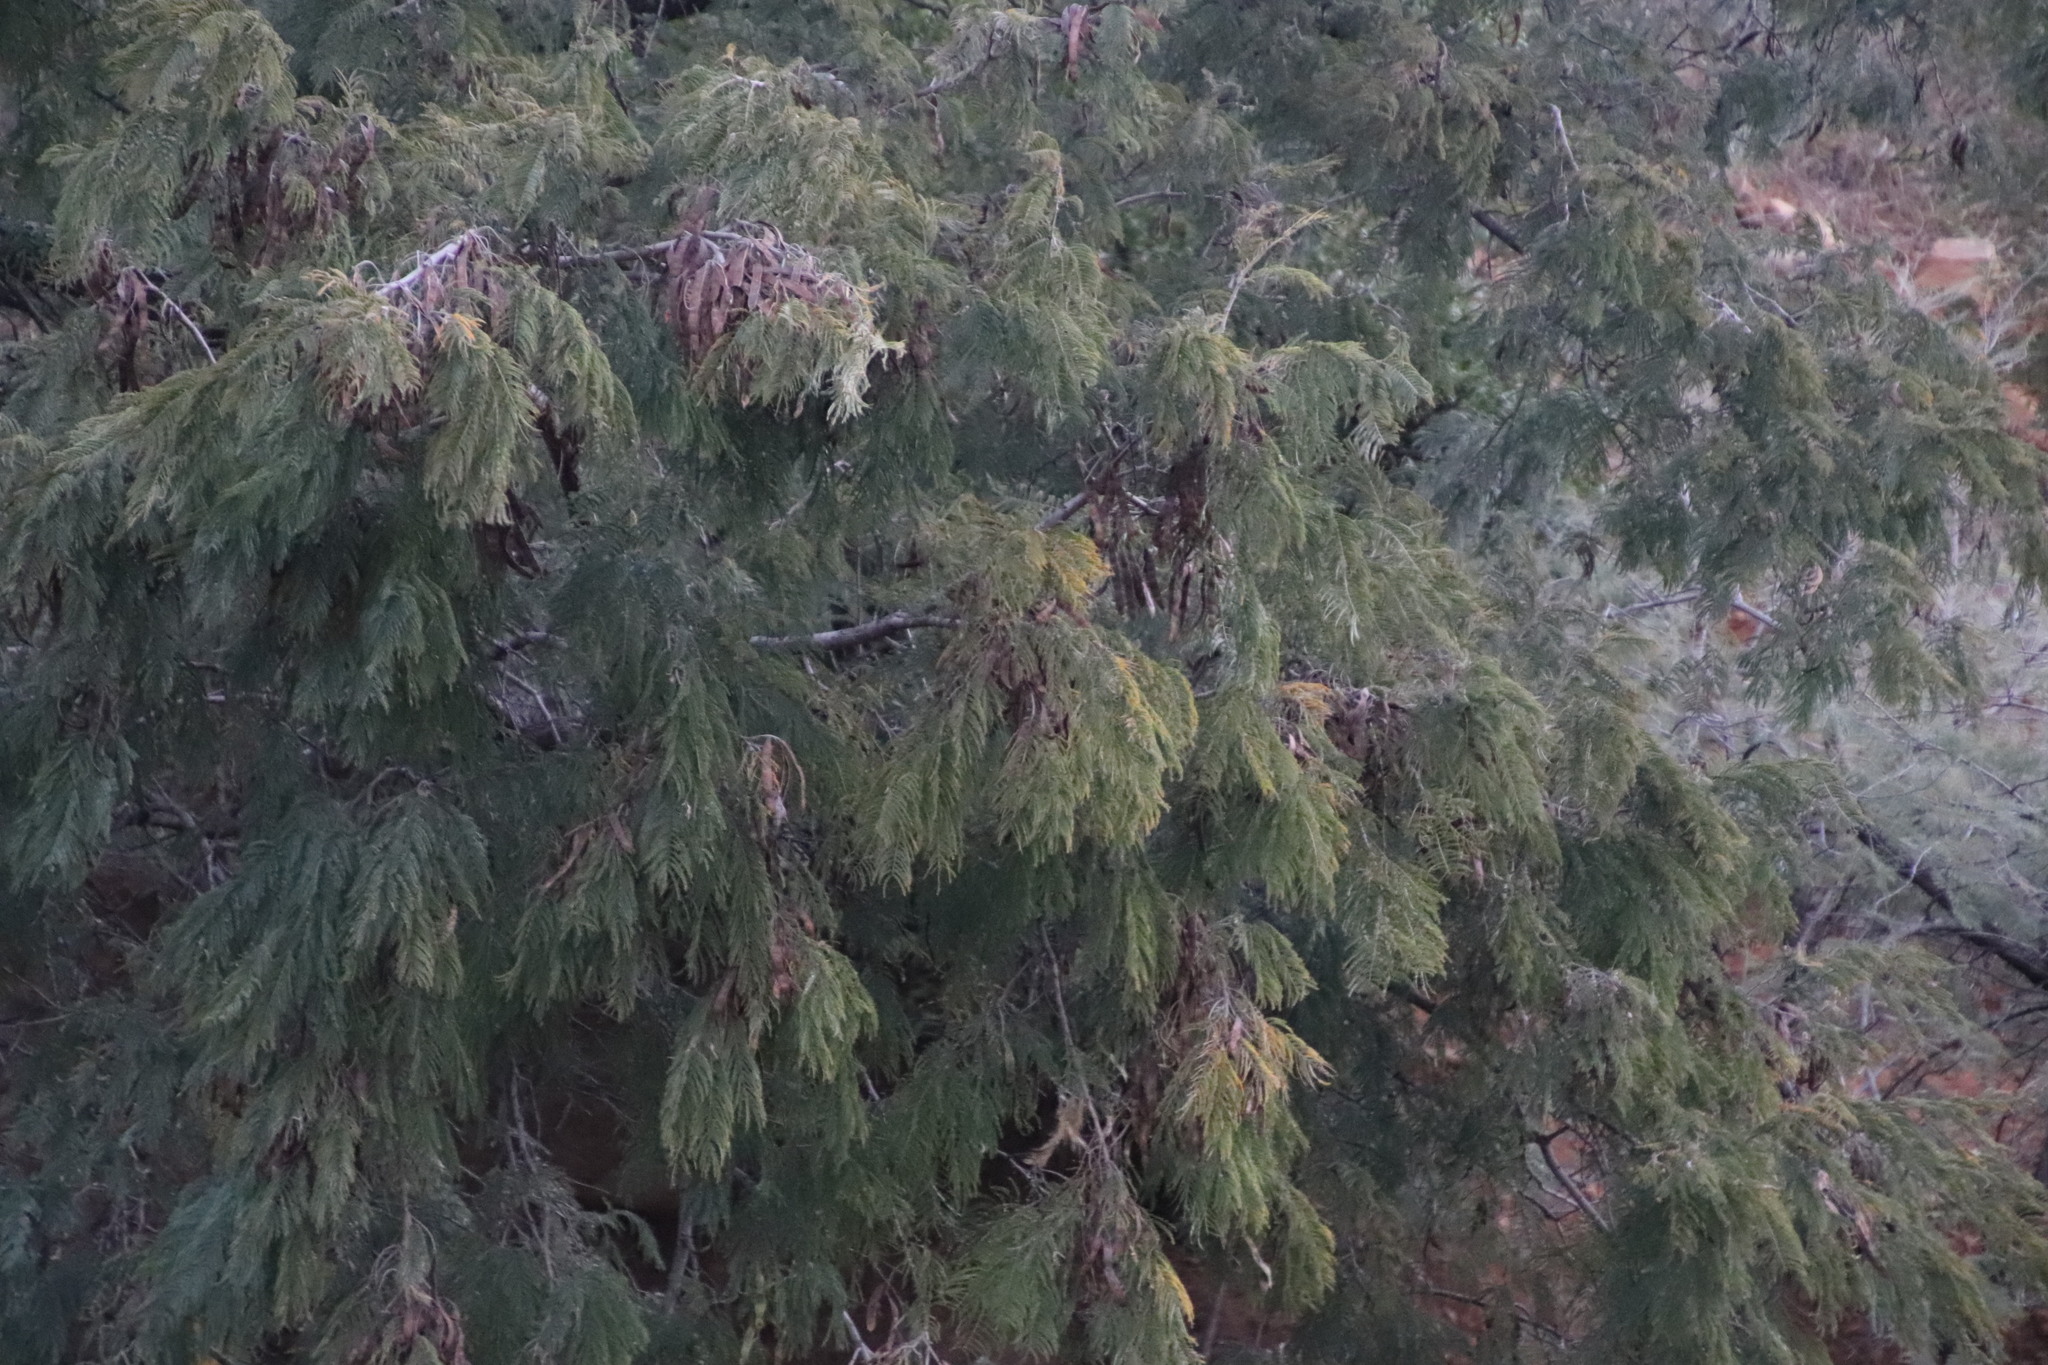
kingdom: Plantae
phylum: Tracheophyta
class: Magnoliopsida
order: Fabales
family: Fabaceae
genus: Acacia
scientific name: Acacia mearnsii
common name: Black wattle
